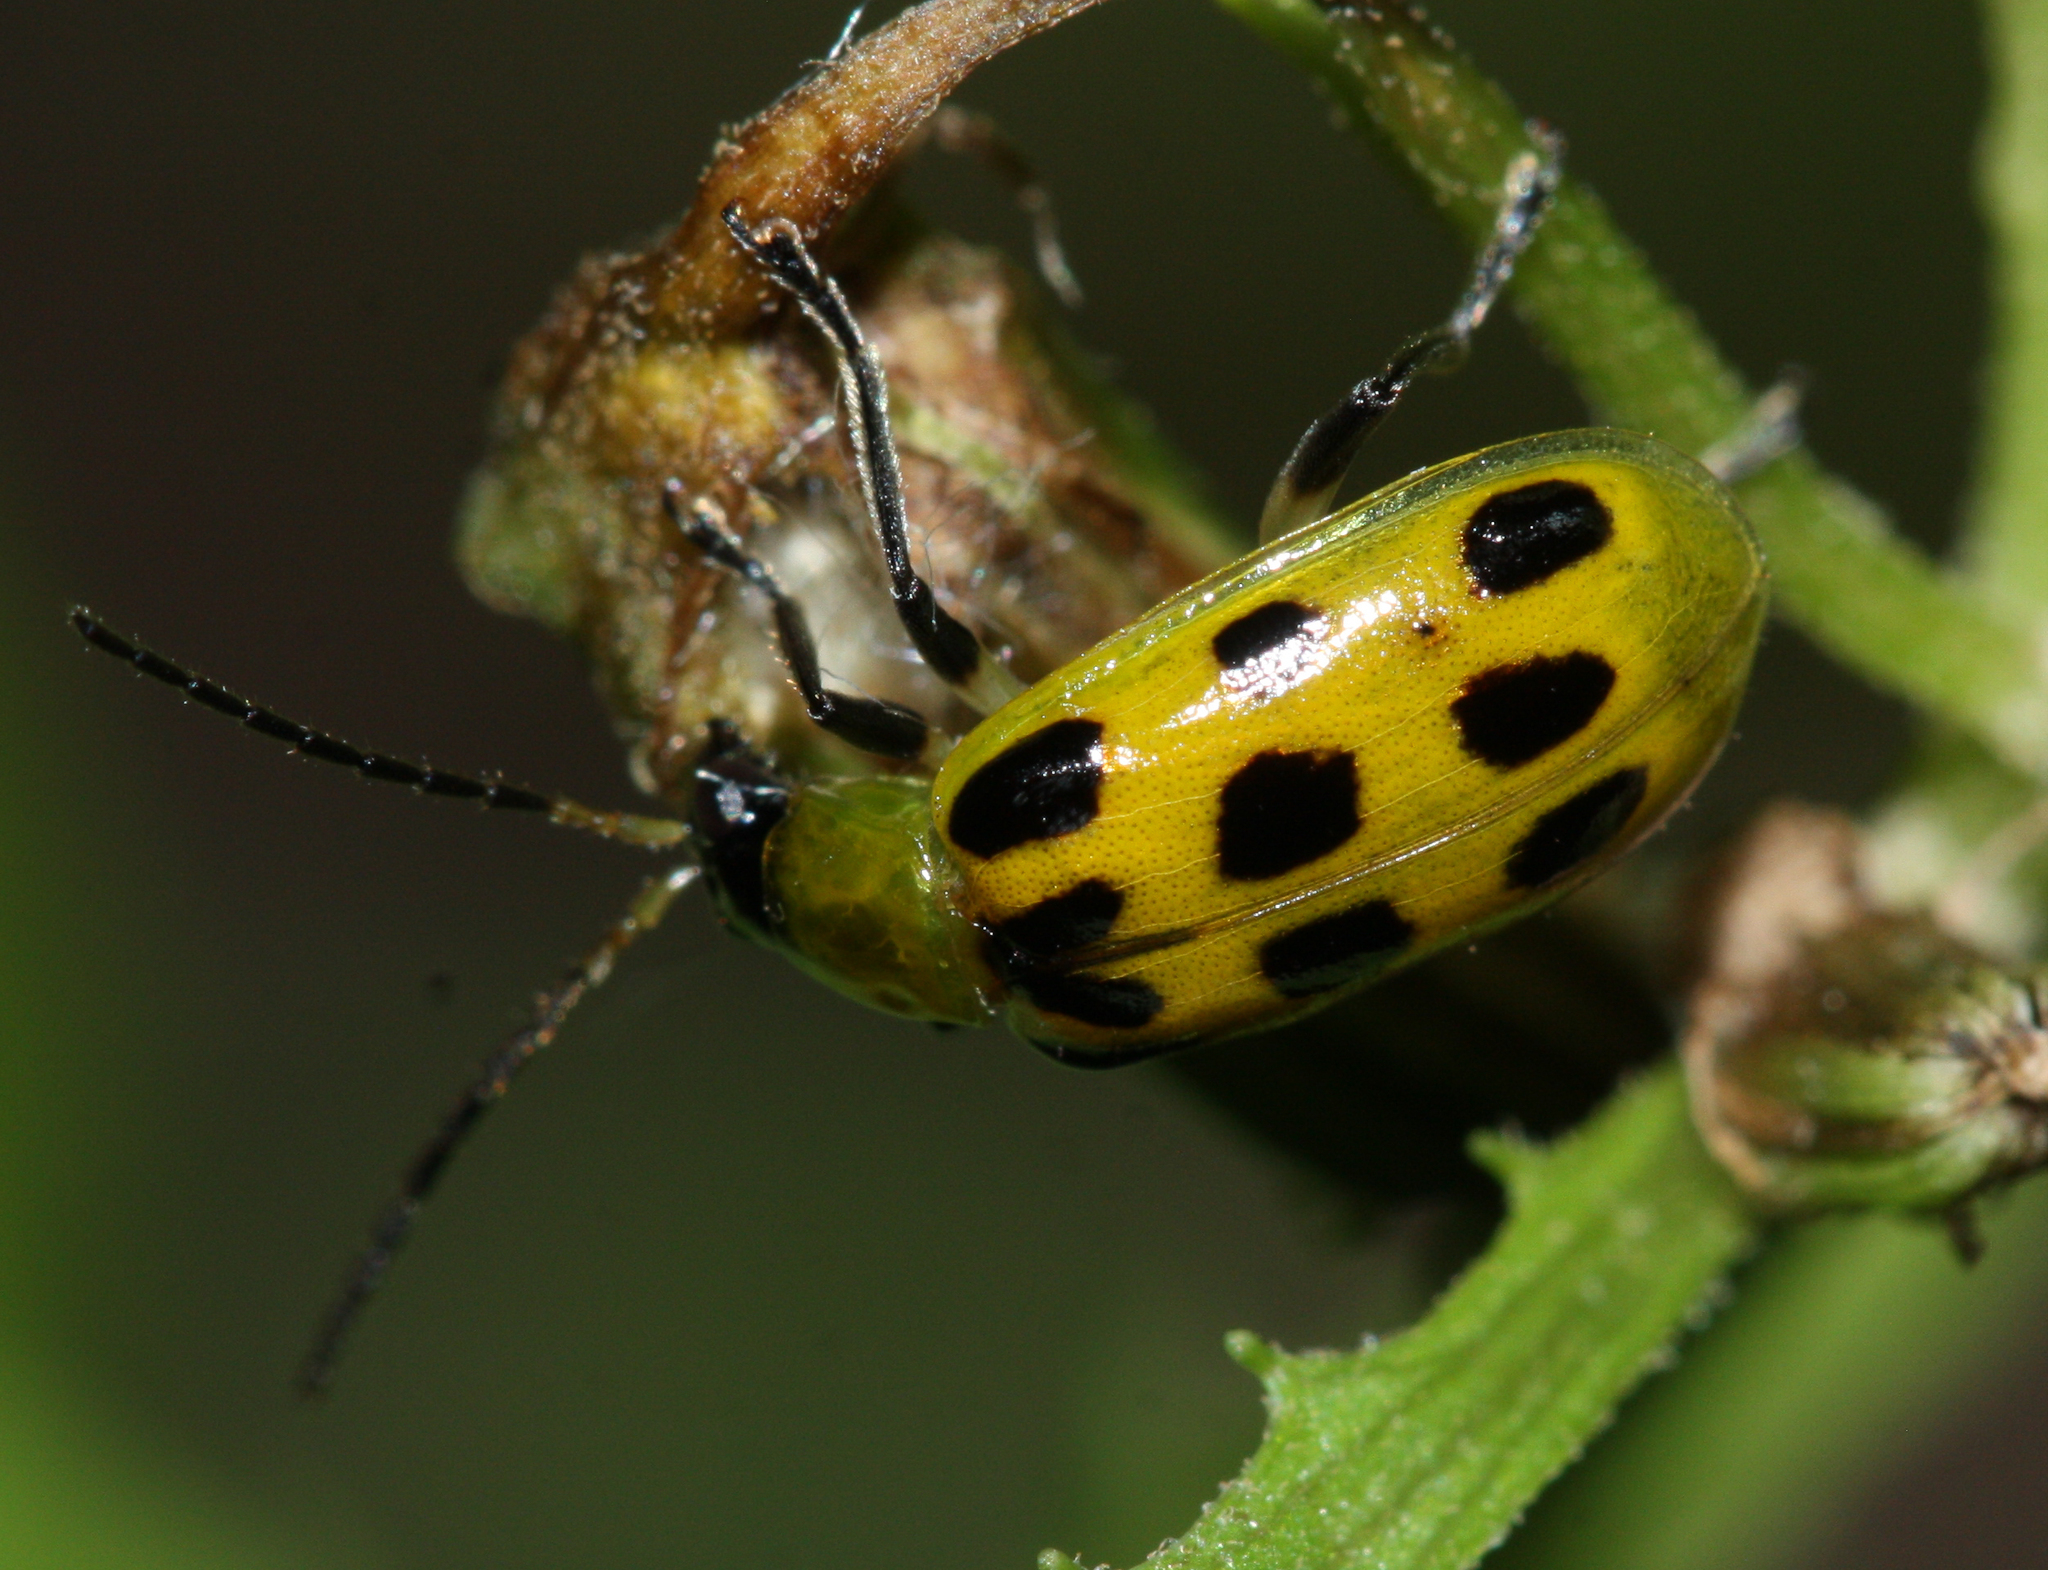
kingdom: Animalia
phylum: Arthropoda
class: Insecta
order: Coleoptera
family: Chrysomelidae
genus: Diabrotica
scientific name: Diabrotica undecimpunctata
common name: Spotted cucumber beetle
